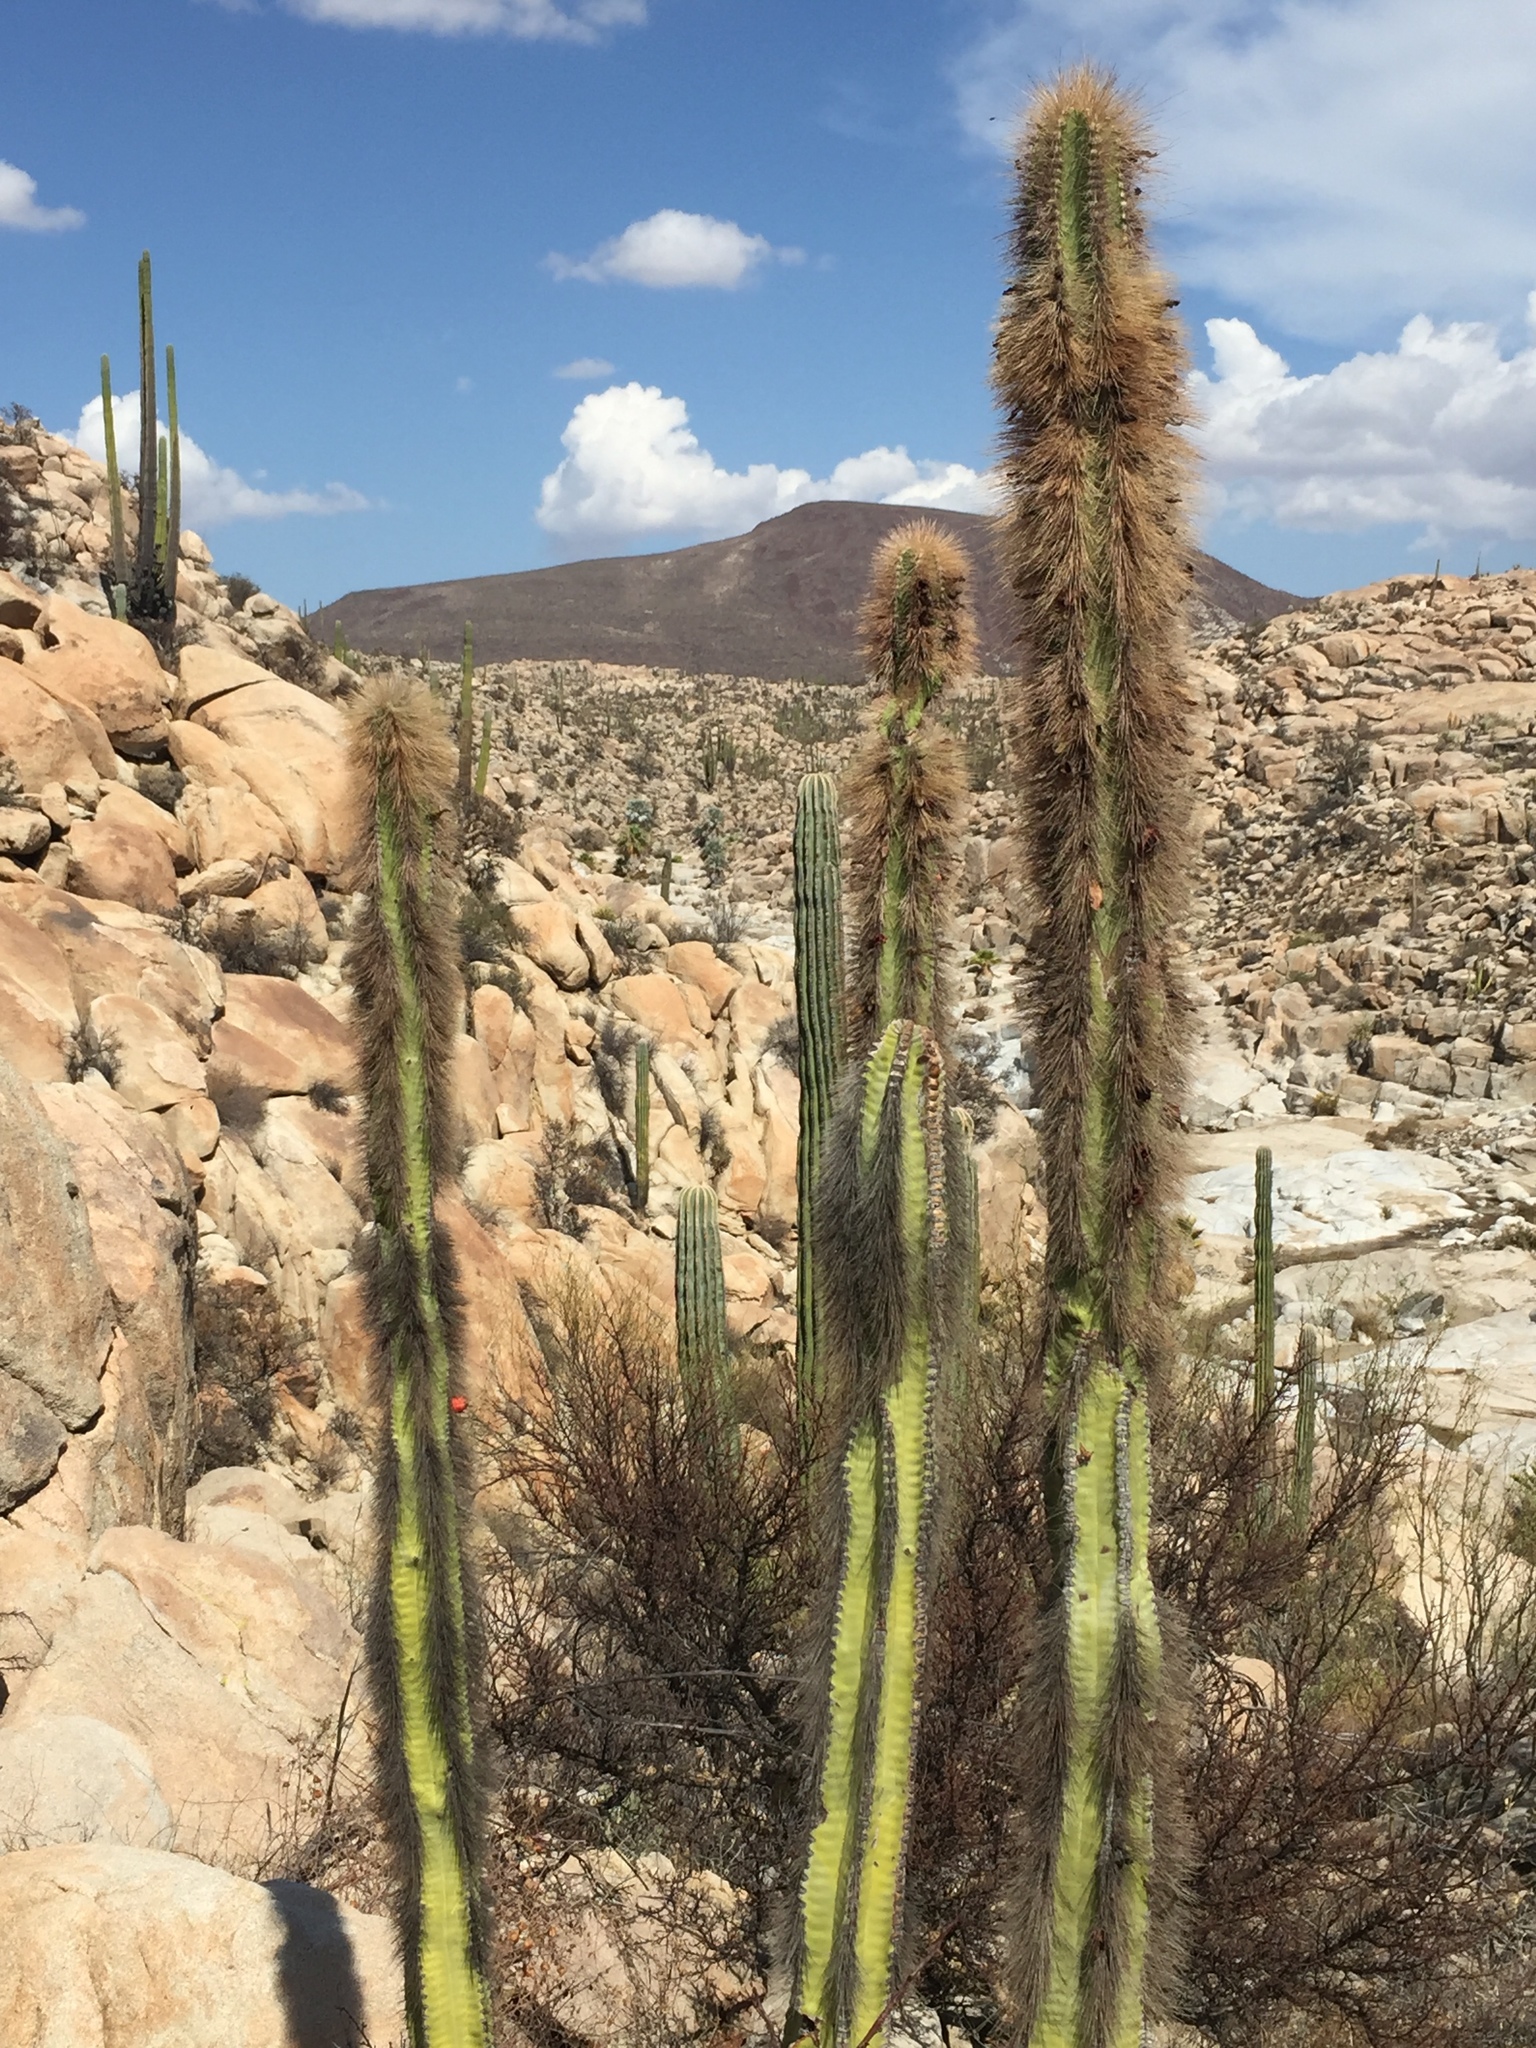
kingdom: Plantae
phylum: Tracheophyta
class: Magnoliopsida
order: Caryophyllales
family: Cactaceae
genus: Pachycereus
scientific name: Pachycereus schottii
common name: Senita cactus
